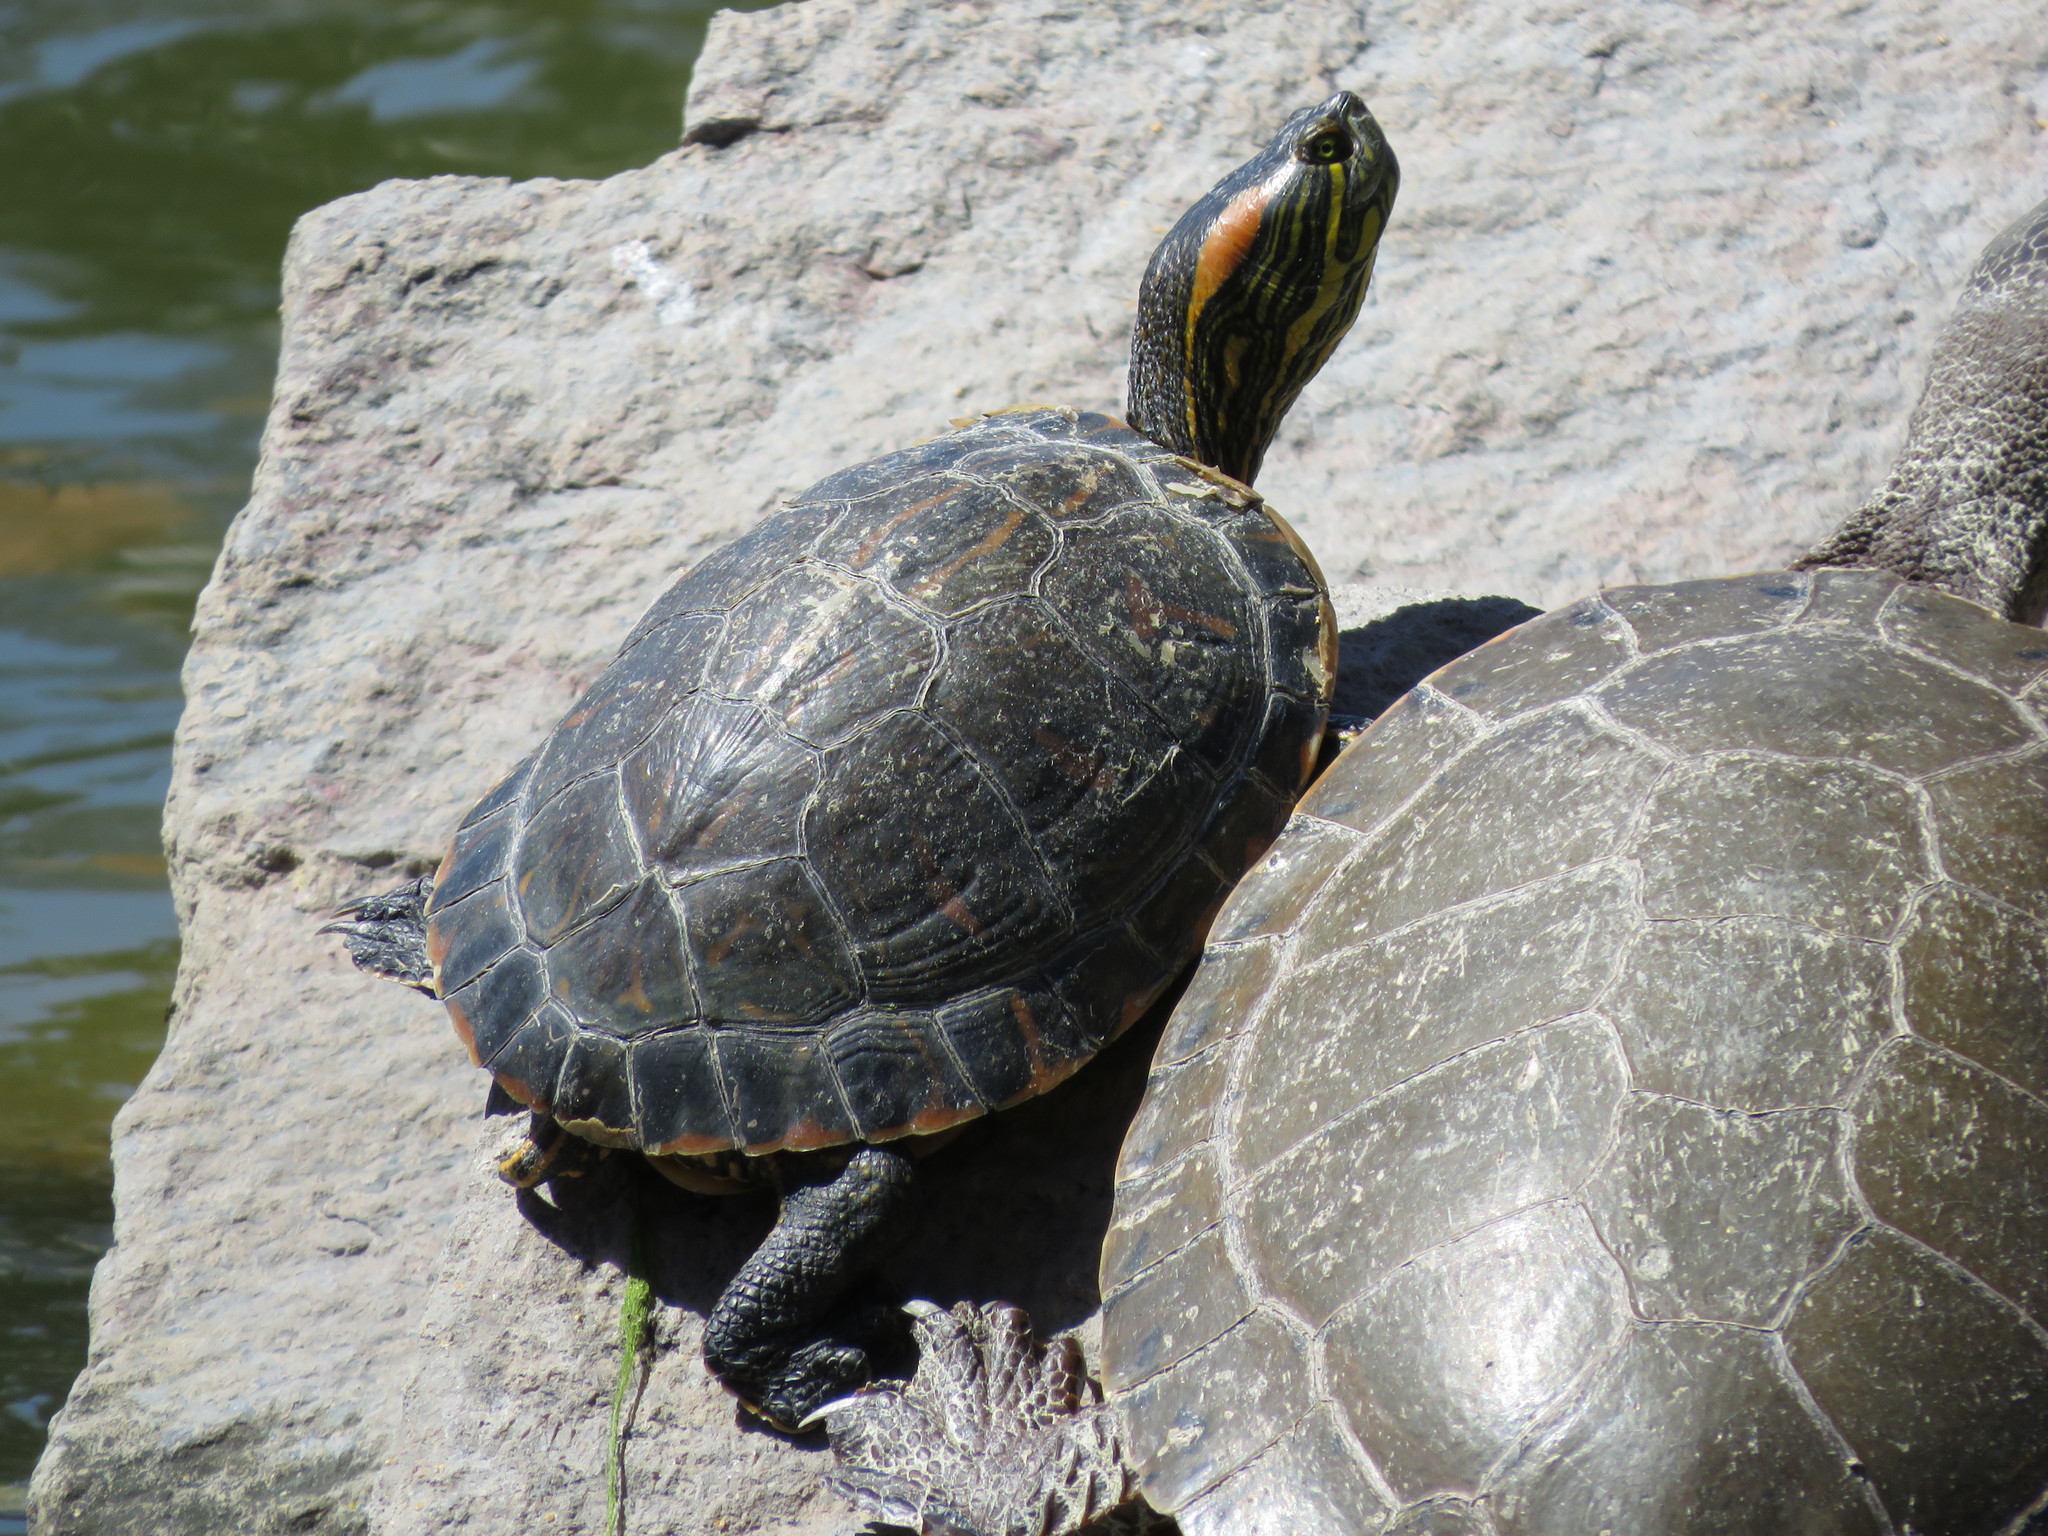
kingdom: Animalia
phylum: Chordata
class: Testudines
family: Emydidae
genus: Trachemys
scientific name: Trachemys scripta
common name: Slider
